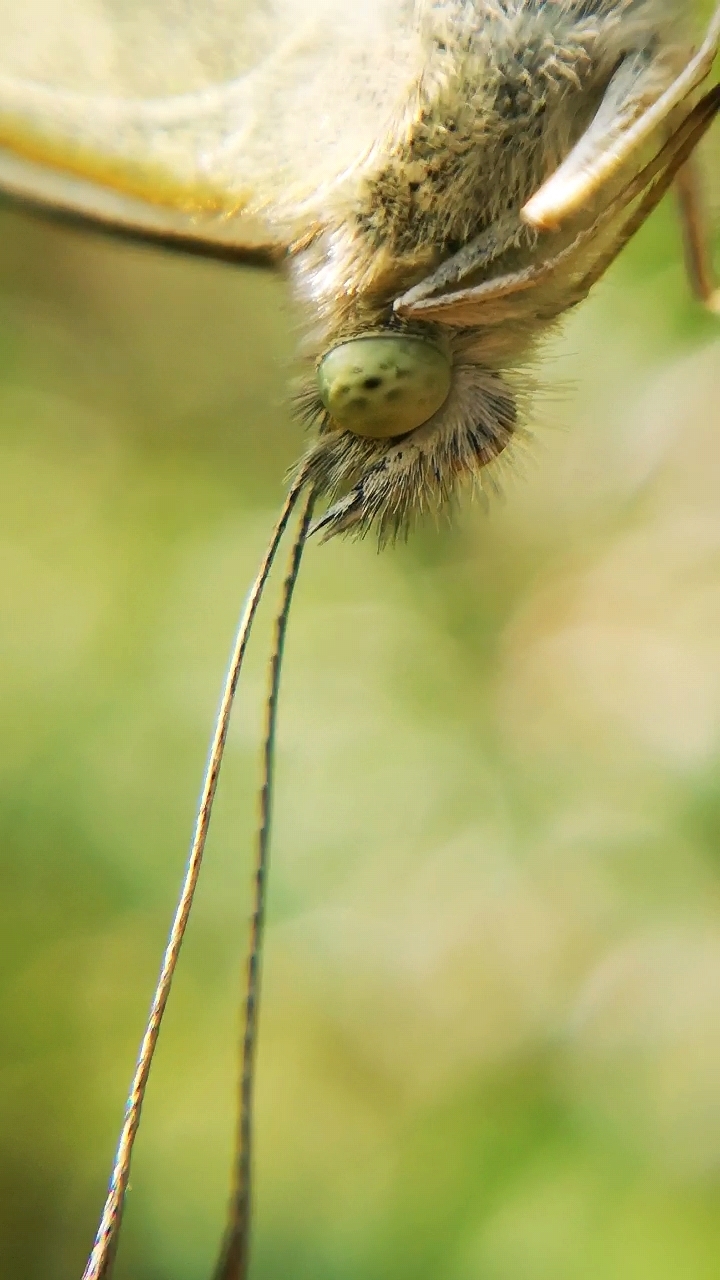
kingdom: Animalia
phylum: Arthropoda
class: Insecta
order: Lepidoptera
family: Pieridae
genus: Pieris
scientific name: Pieris rapae
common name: Small white
